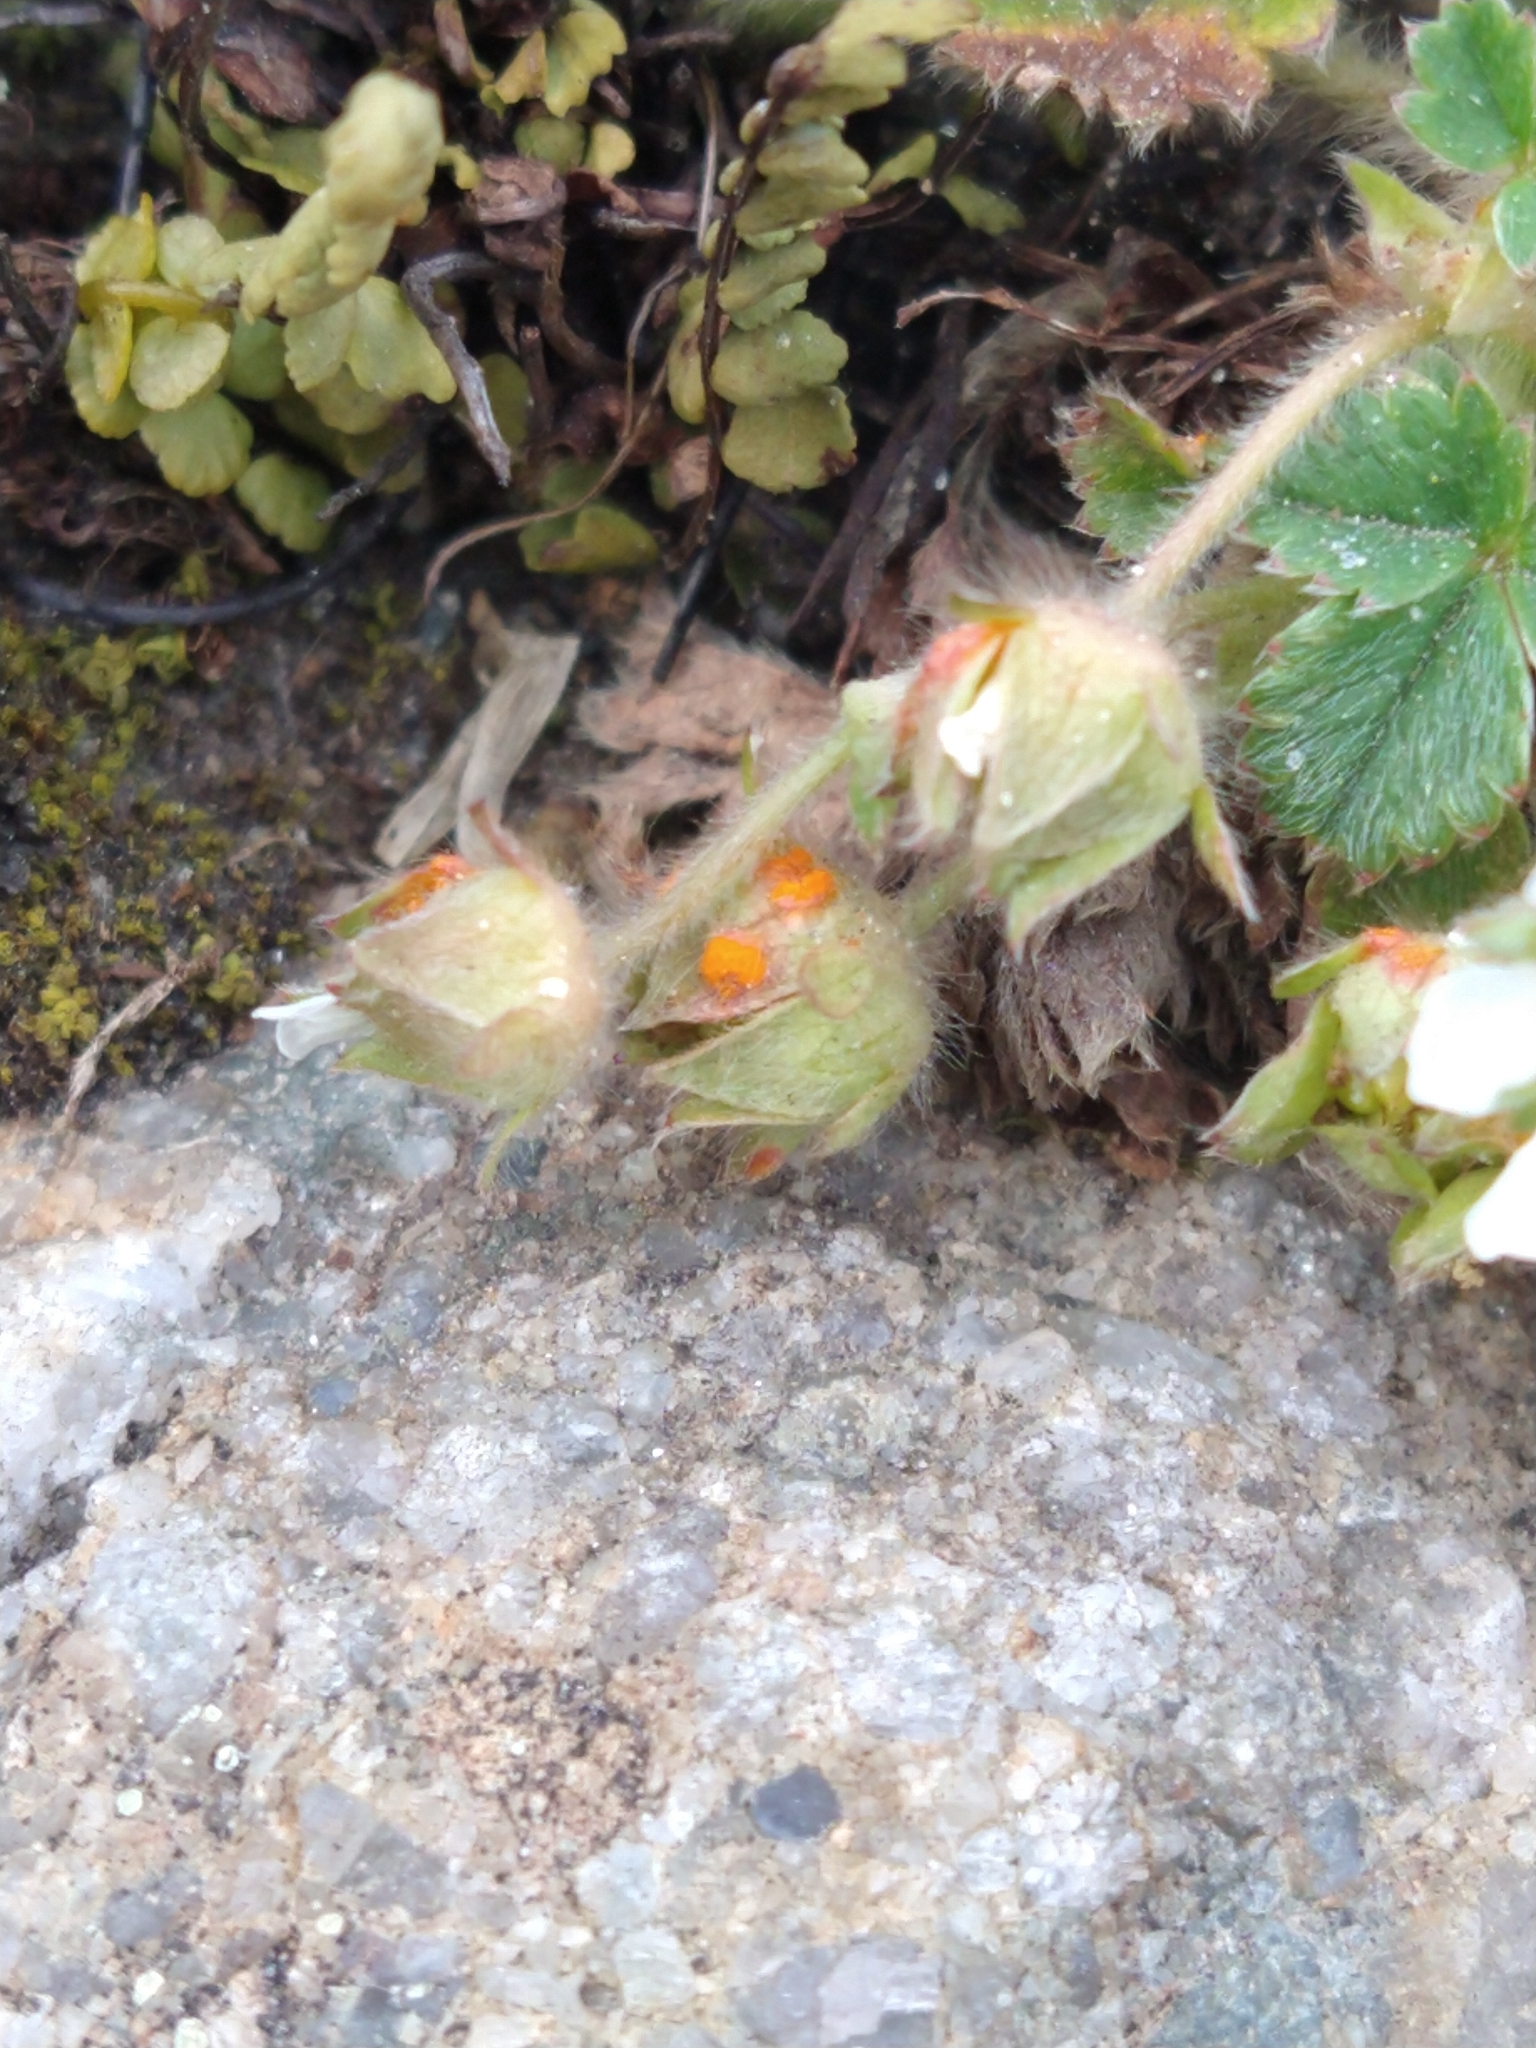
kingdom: Fungi
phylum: Basidiomycota
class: Pucciniomycetes
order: Pucciniales
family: Phragmidiaceae
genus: Phragmidium
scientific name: Phragmidium fragariae
